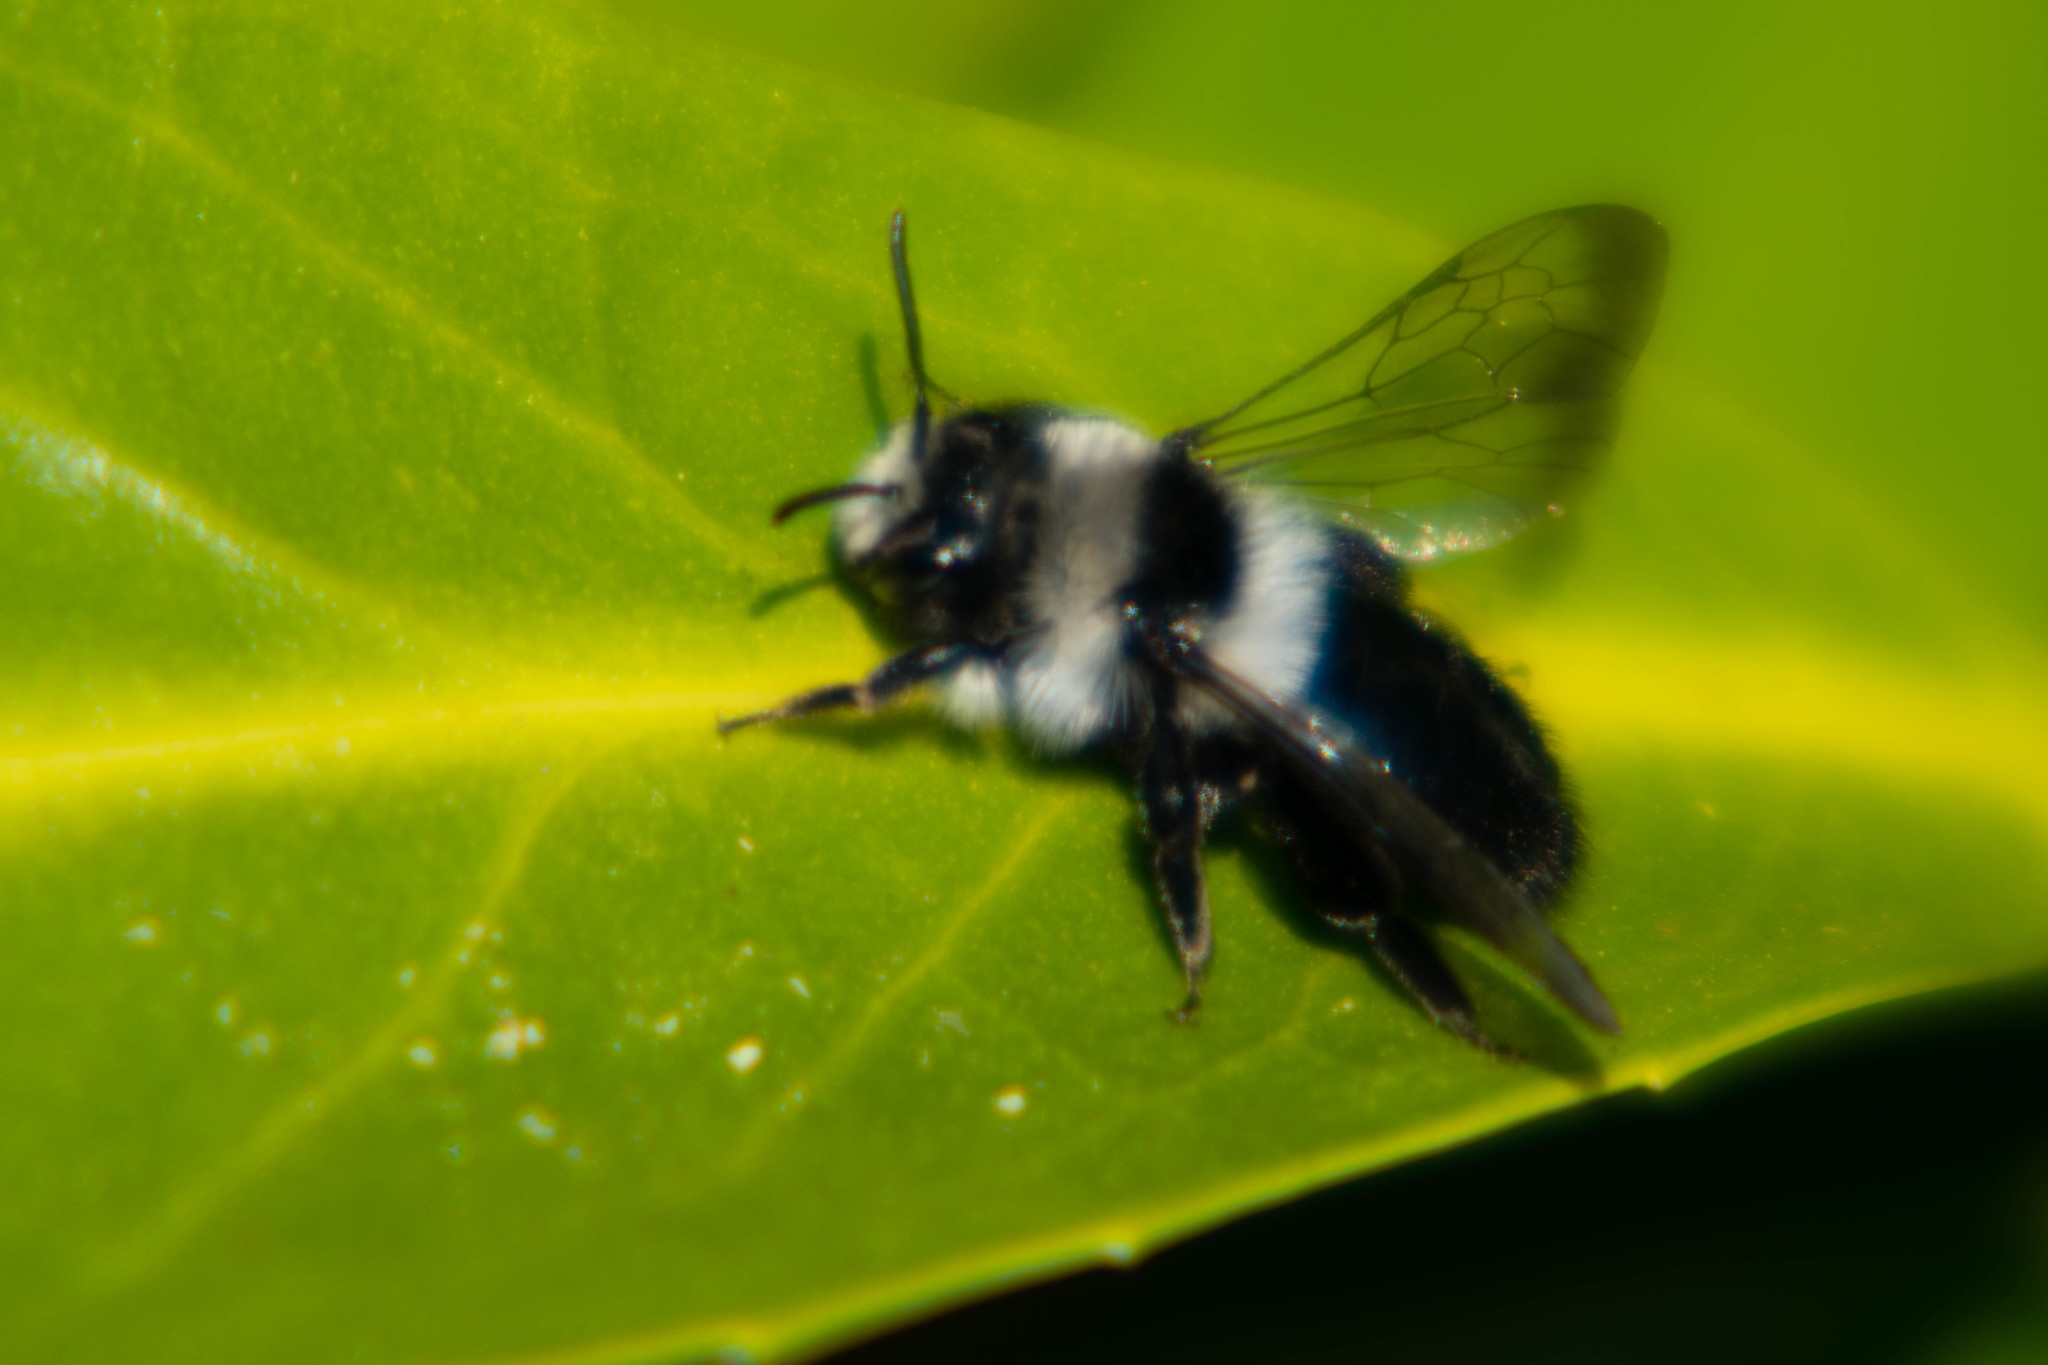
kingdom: Animalia
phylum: Arthropoda
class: Insecta
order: Hymenoptera
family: Andrenidae
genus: Andrena
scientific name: Andrena cineraria
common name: Ashy mining bee
